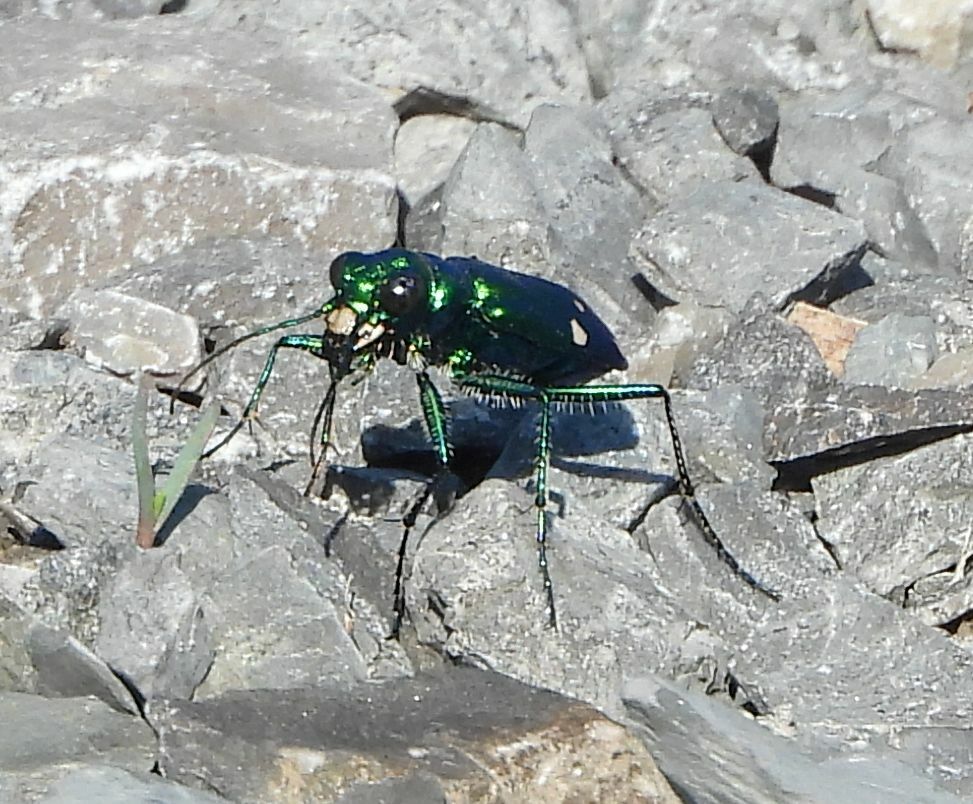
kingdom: Animalia
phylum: Arthropoda
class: Insecta
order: Coleoptera
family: Carabidae
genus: Cicindela
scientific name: Cicindela sexguttata
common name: Six-spotted tiger beetle
